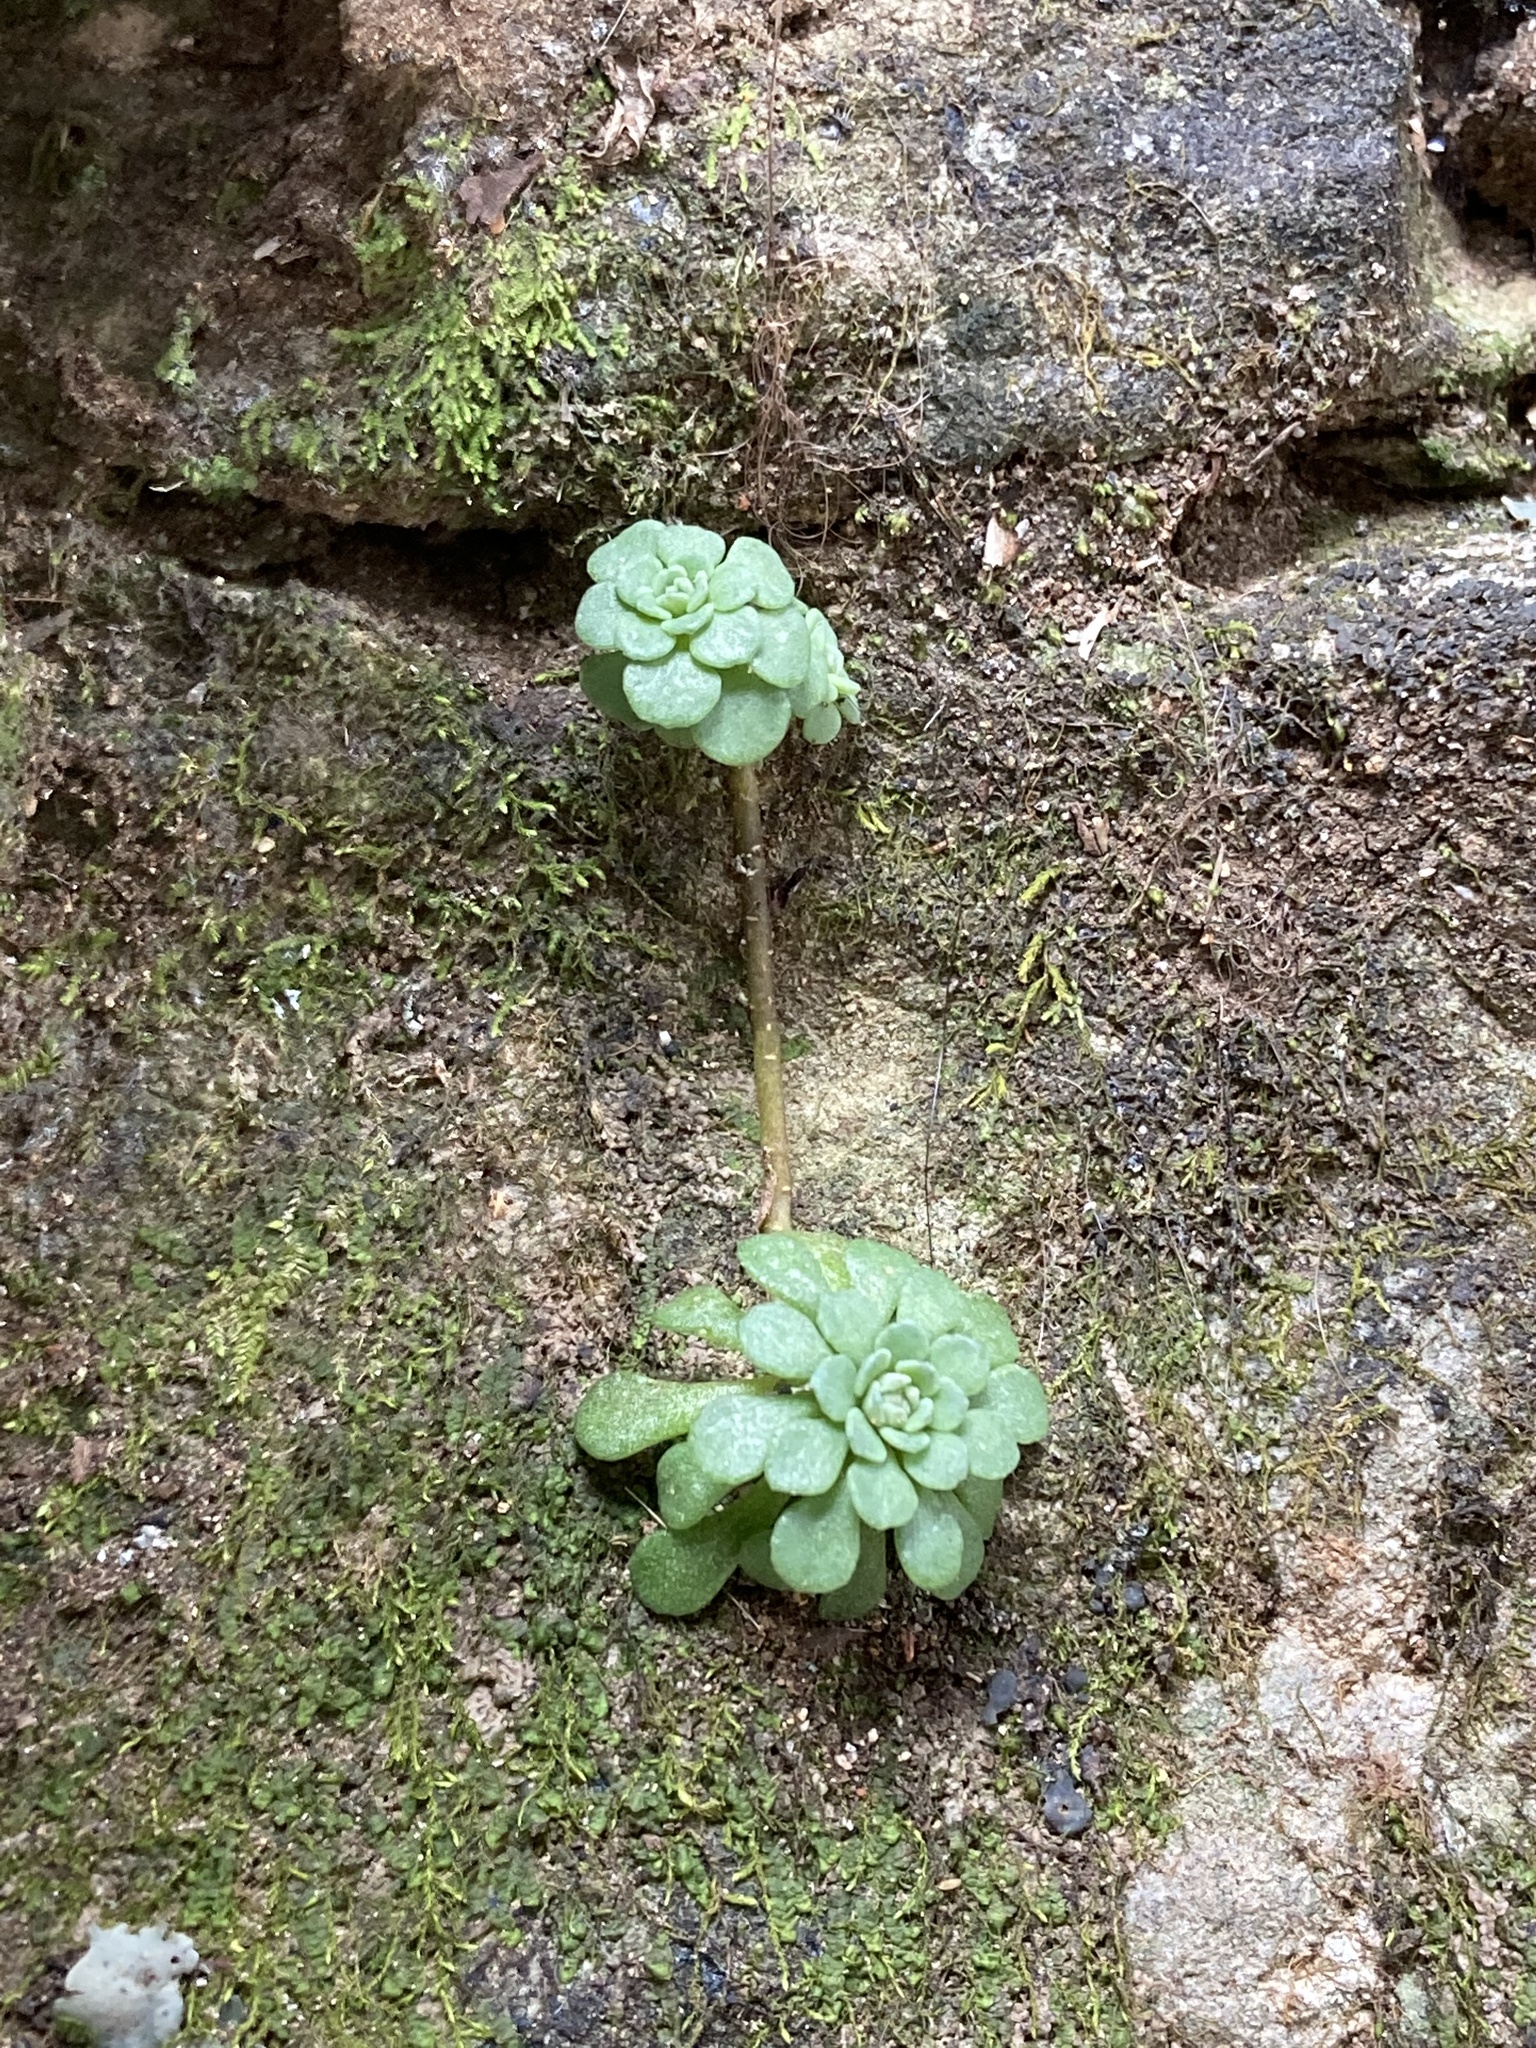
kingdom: Plantae
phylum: Tracheophyta
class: Magnoliopsida
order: Saxifragales
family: Crassulaceae
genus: Sedum
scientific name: Sedum glaucophyllum
